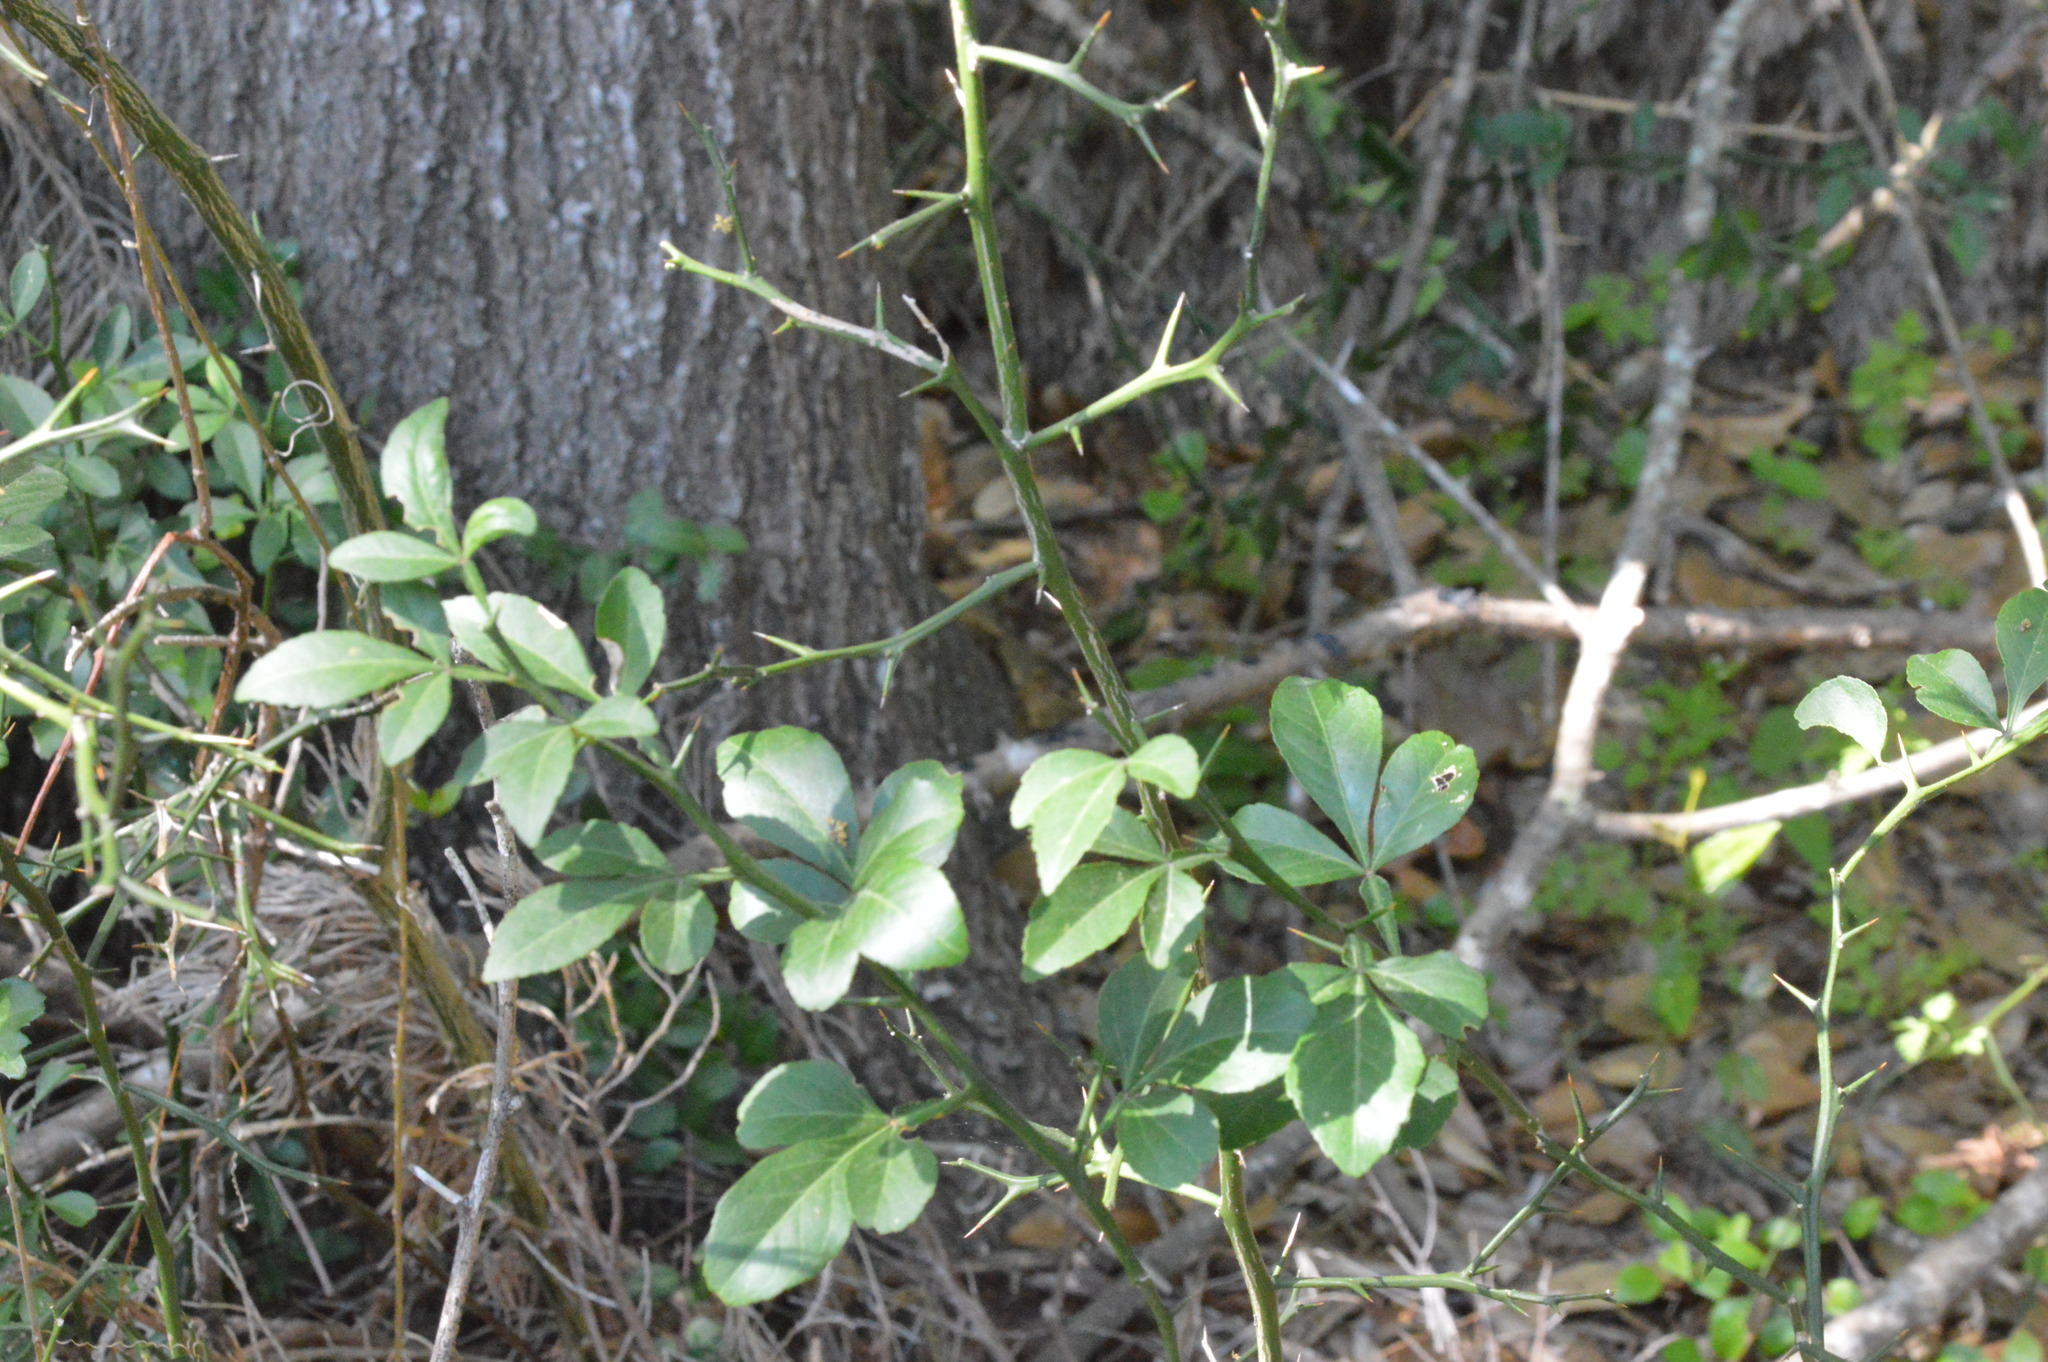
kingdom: Plantae
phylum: Tracheophyta
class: Magnoliopsida
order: Sapindales
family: Rutaceae
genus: Citrus
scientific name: Citrus trifoliata
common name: Japanese bitter-orange
